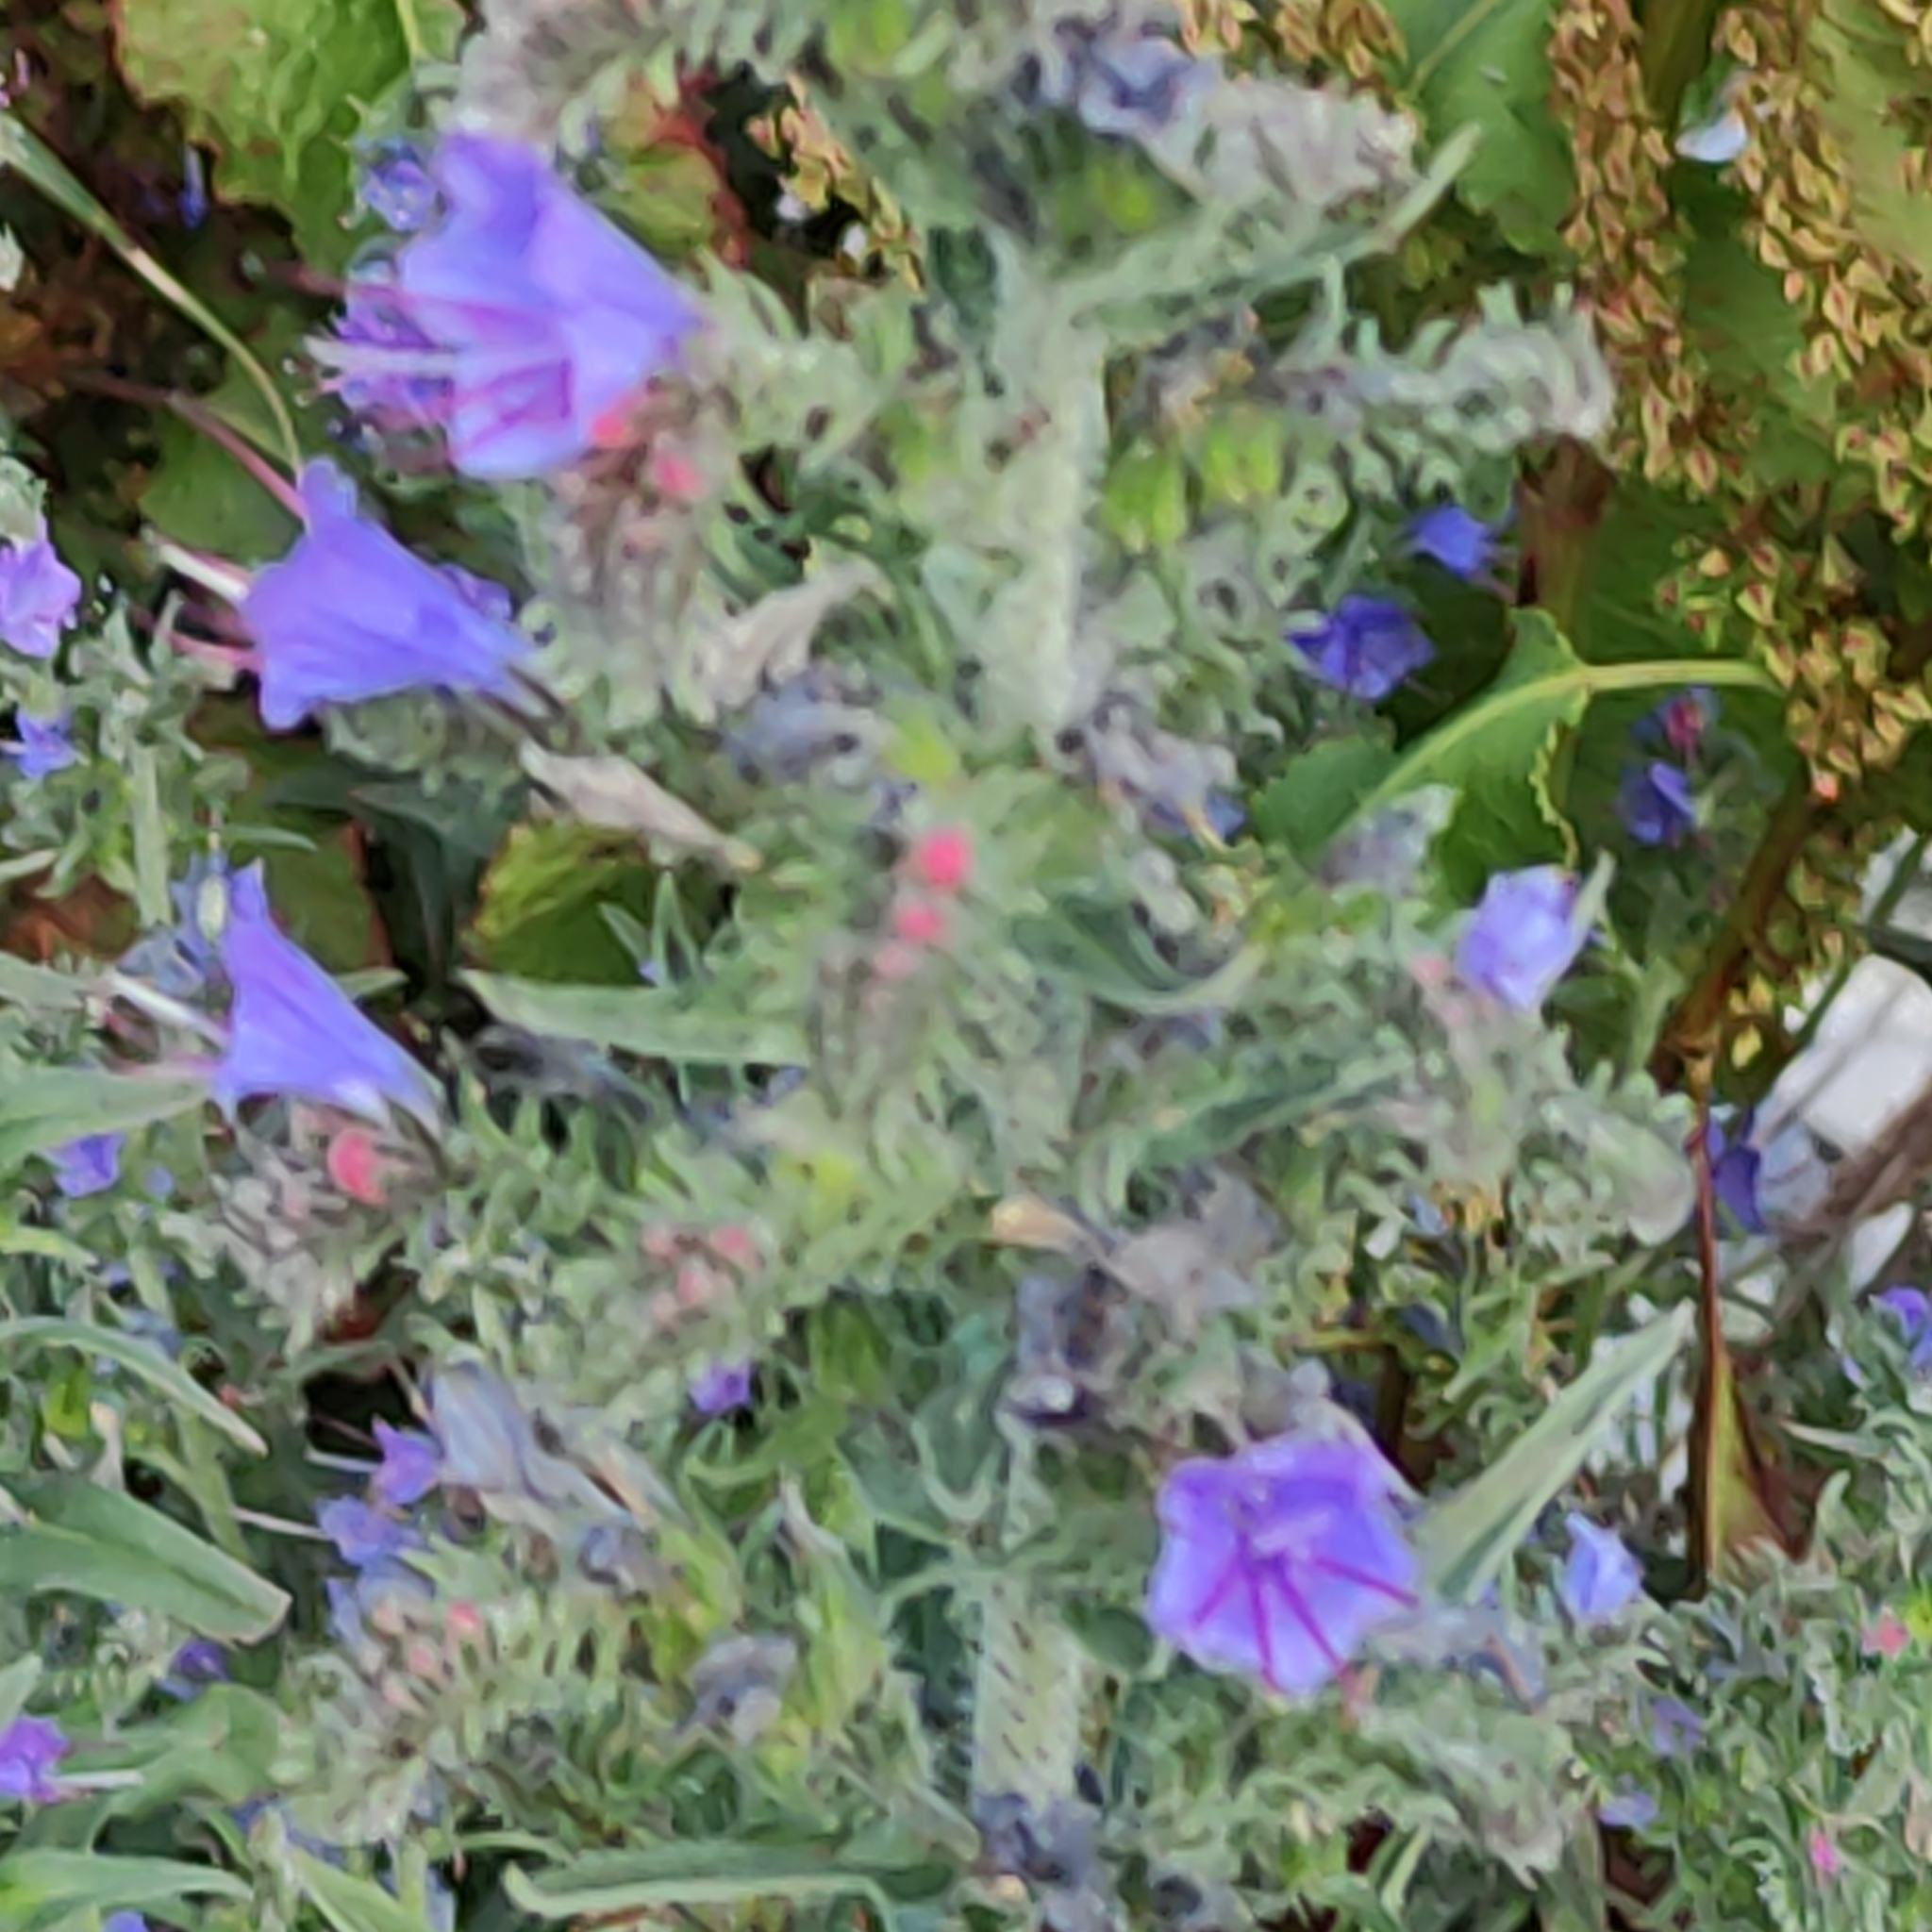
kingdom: Plantae
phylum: Tracheophyta
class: Magnoliopsida
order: Boraginales
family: Boraginaceae
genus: Echium
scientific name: Echium vulgare
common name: Common viper's bugloss
